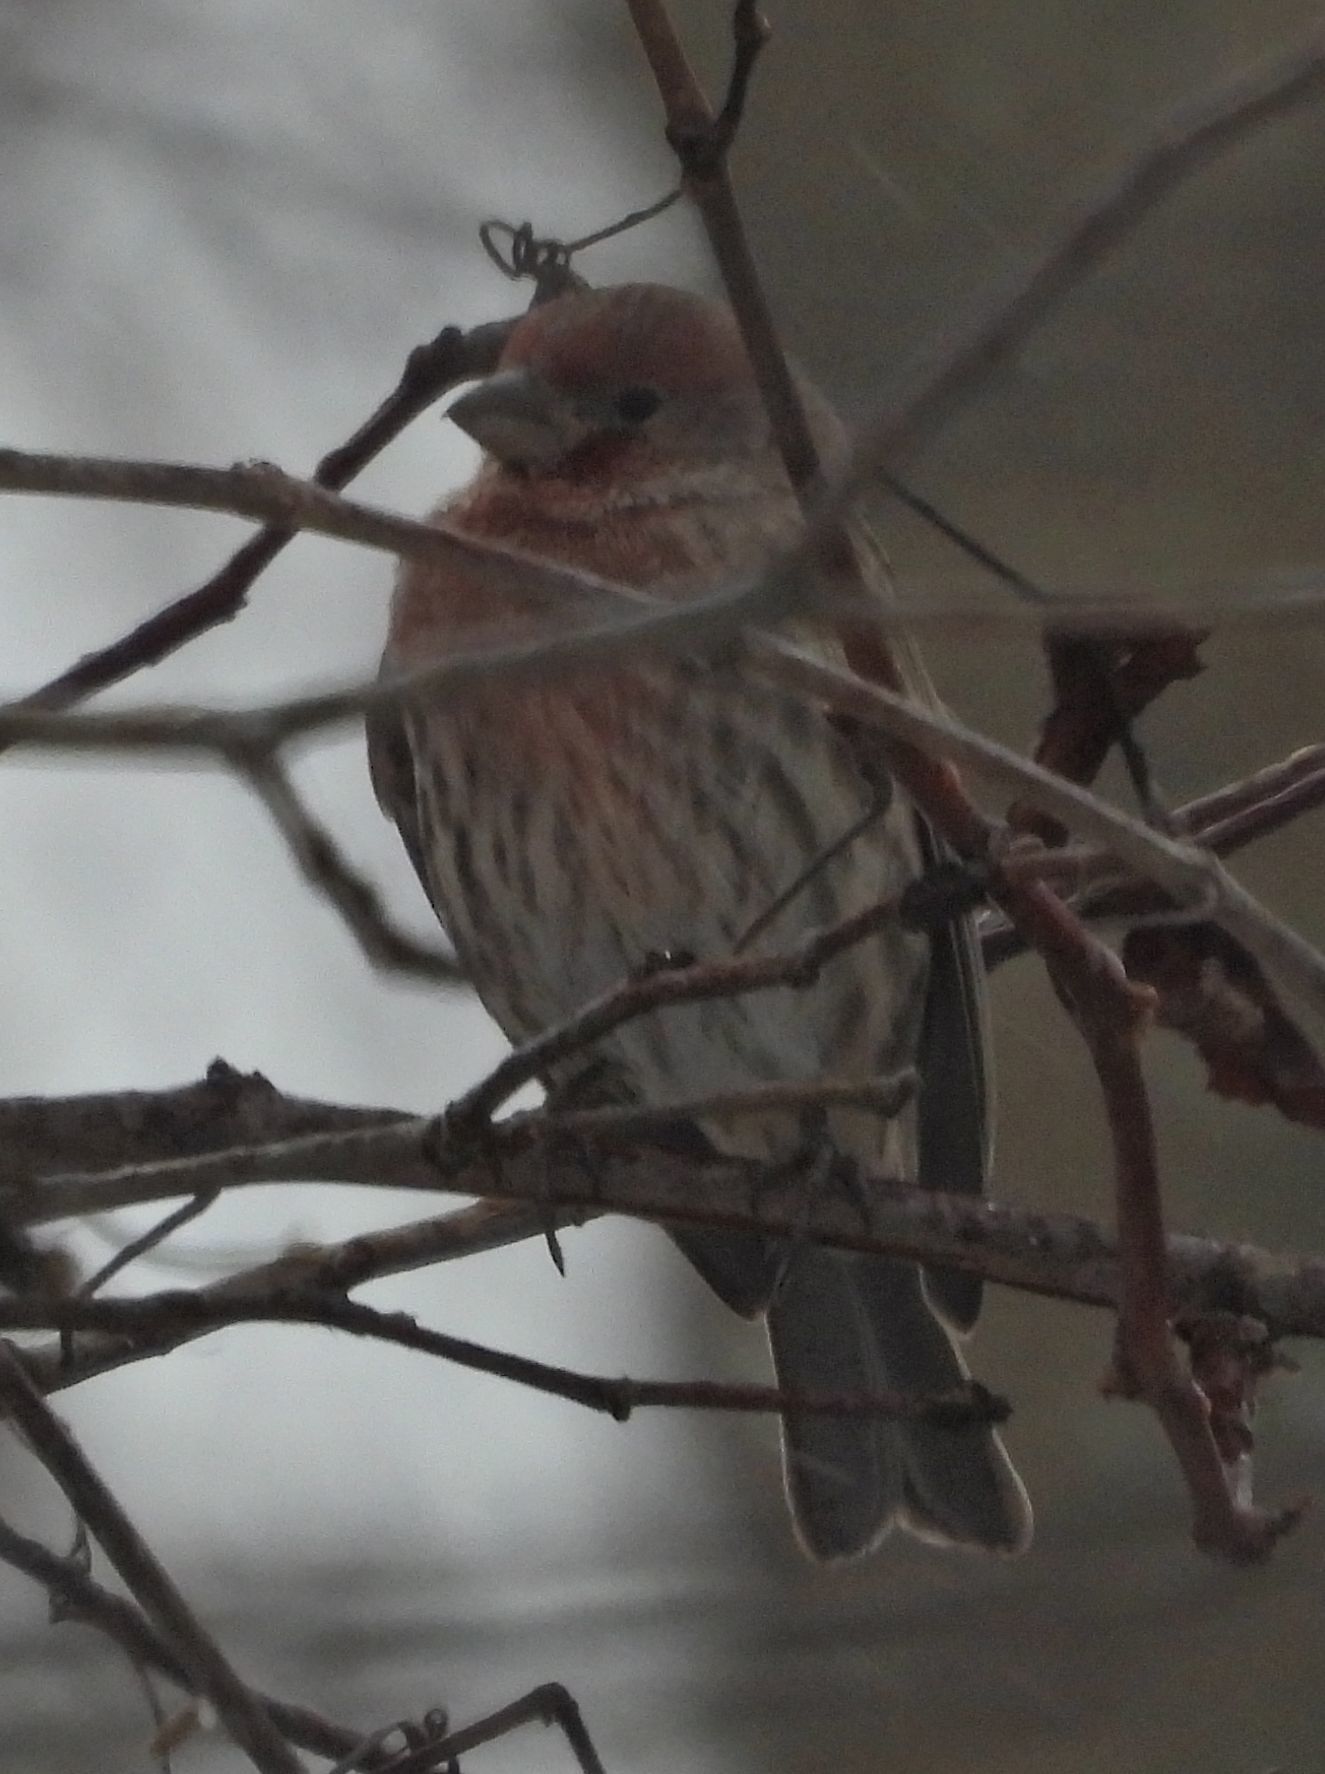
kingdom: Animalia
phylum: Chordata
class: Aves
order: Passeriformes
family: Fringillidae
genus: Haemorhous
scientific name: Haemorhous mexicanus
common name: House finch
